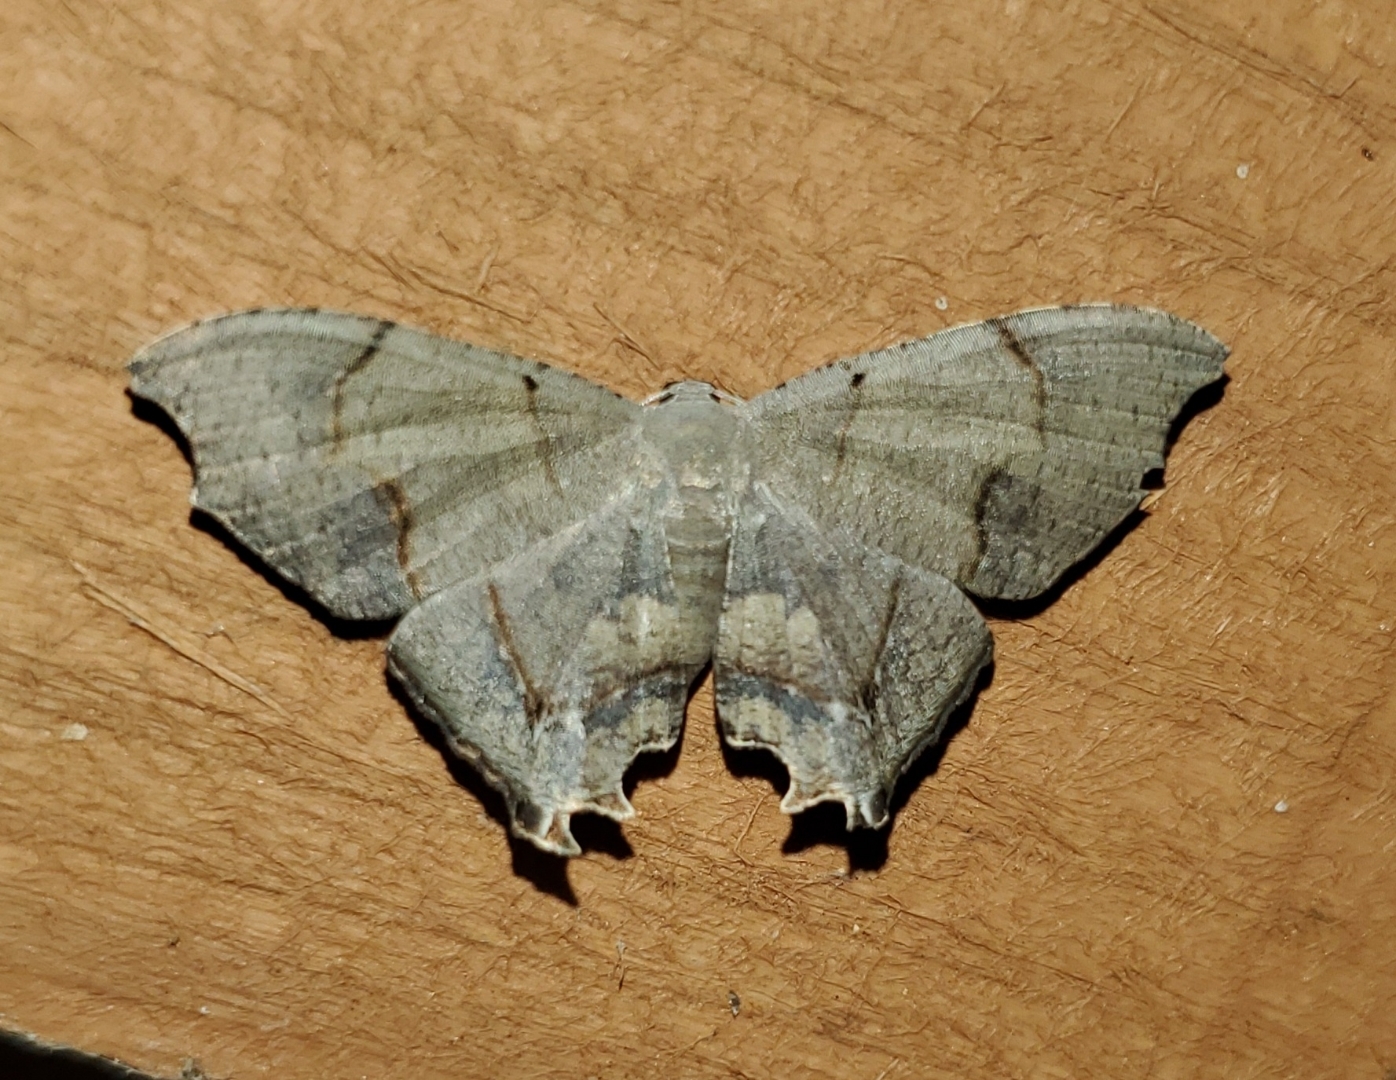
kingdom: Animalia
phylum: Arthropoda
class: Insecta
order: Lepidoptera
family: Uraniidae
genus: Trotorhombia
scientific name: Trotorhombia metachromata
